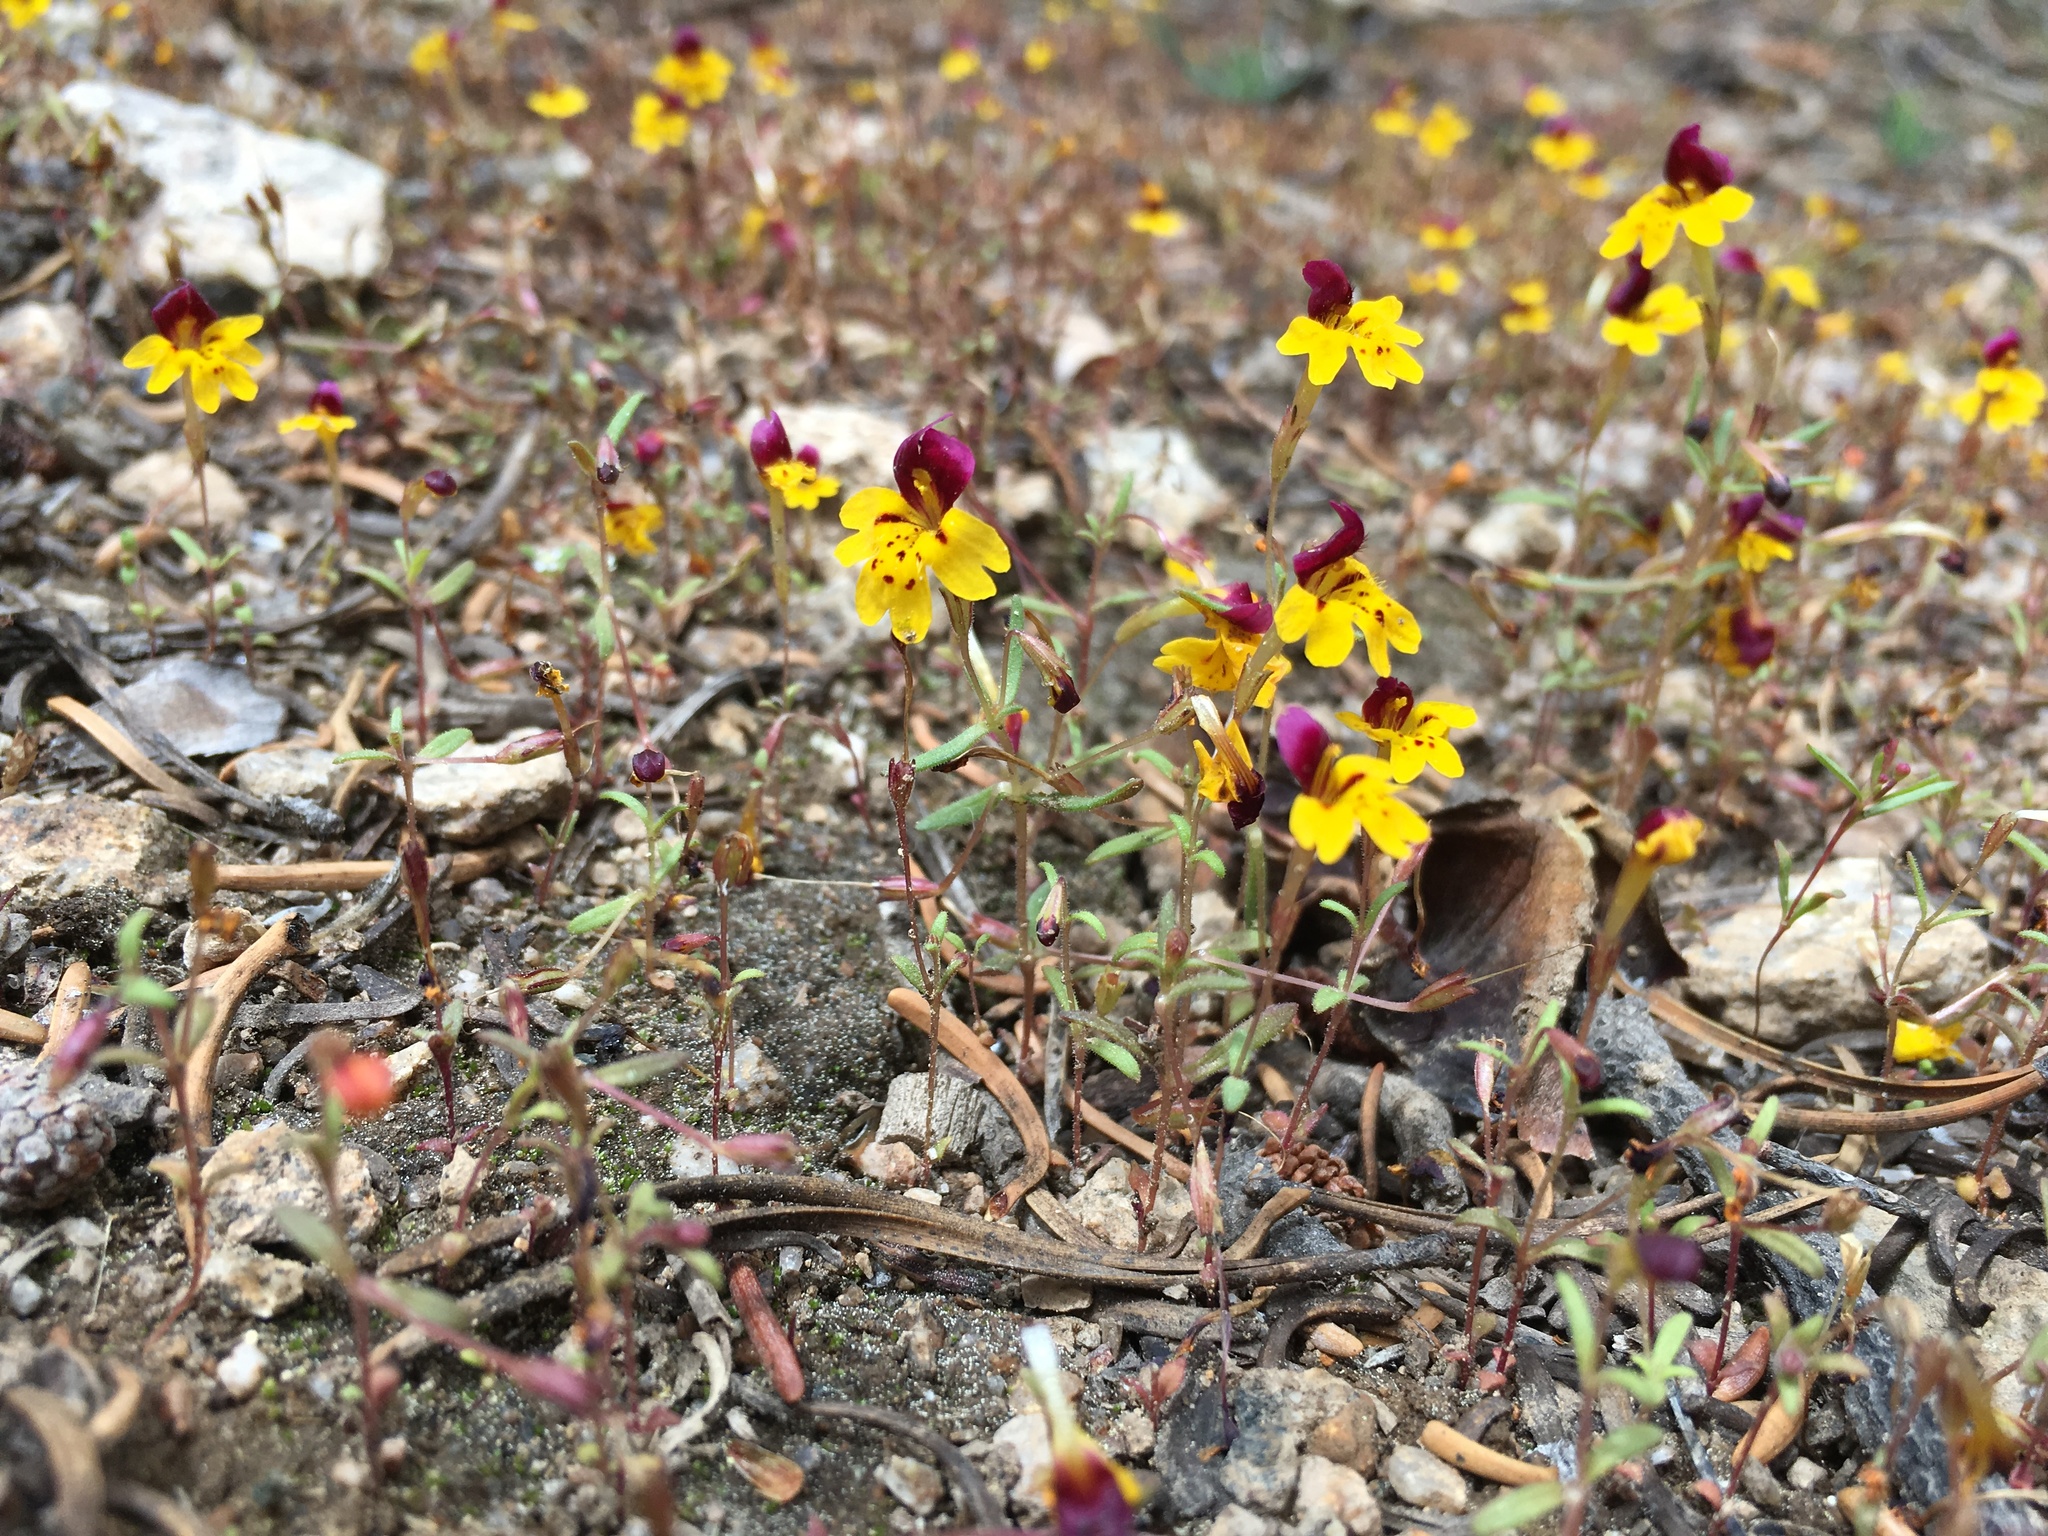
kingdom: Plantae
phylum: Tracheophyta
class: Magnoliopsida
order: Lamiales
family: Phrymaceae
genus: Erythranthe
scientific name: Erythranthe barbata
